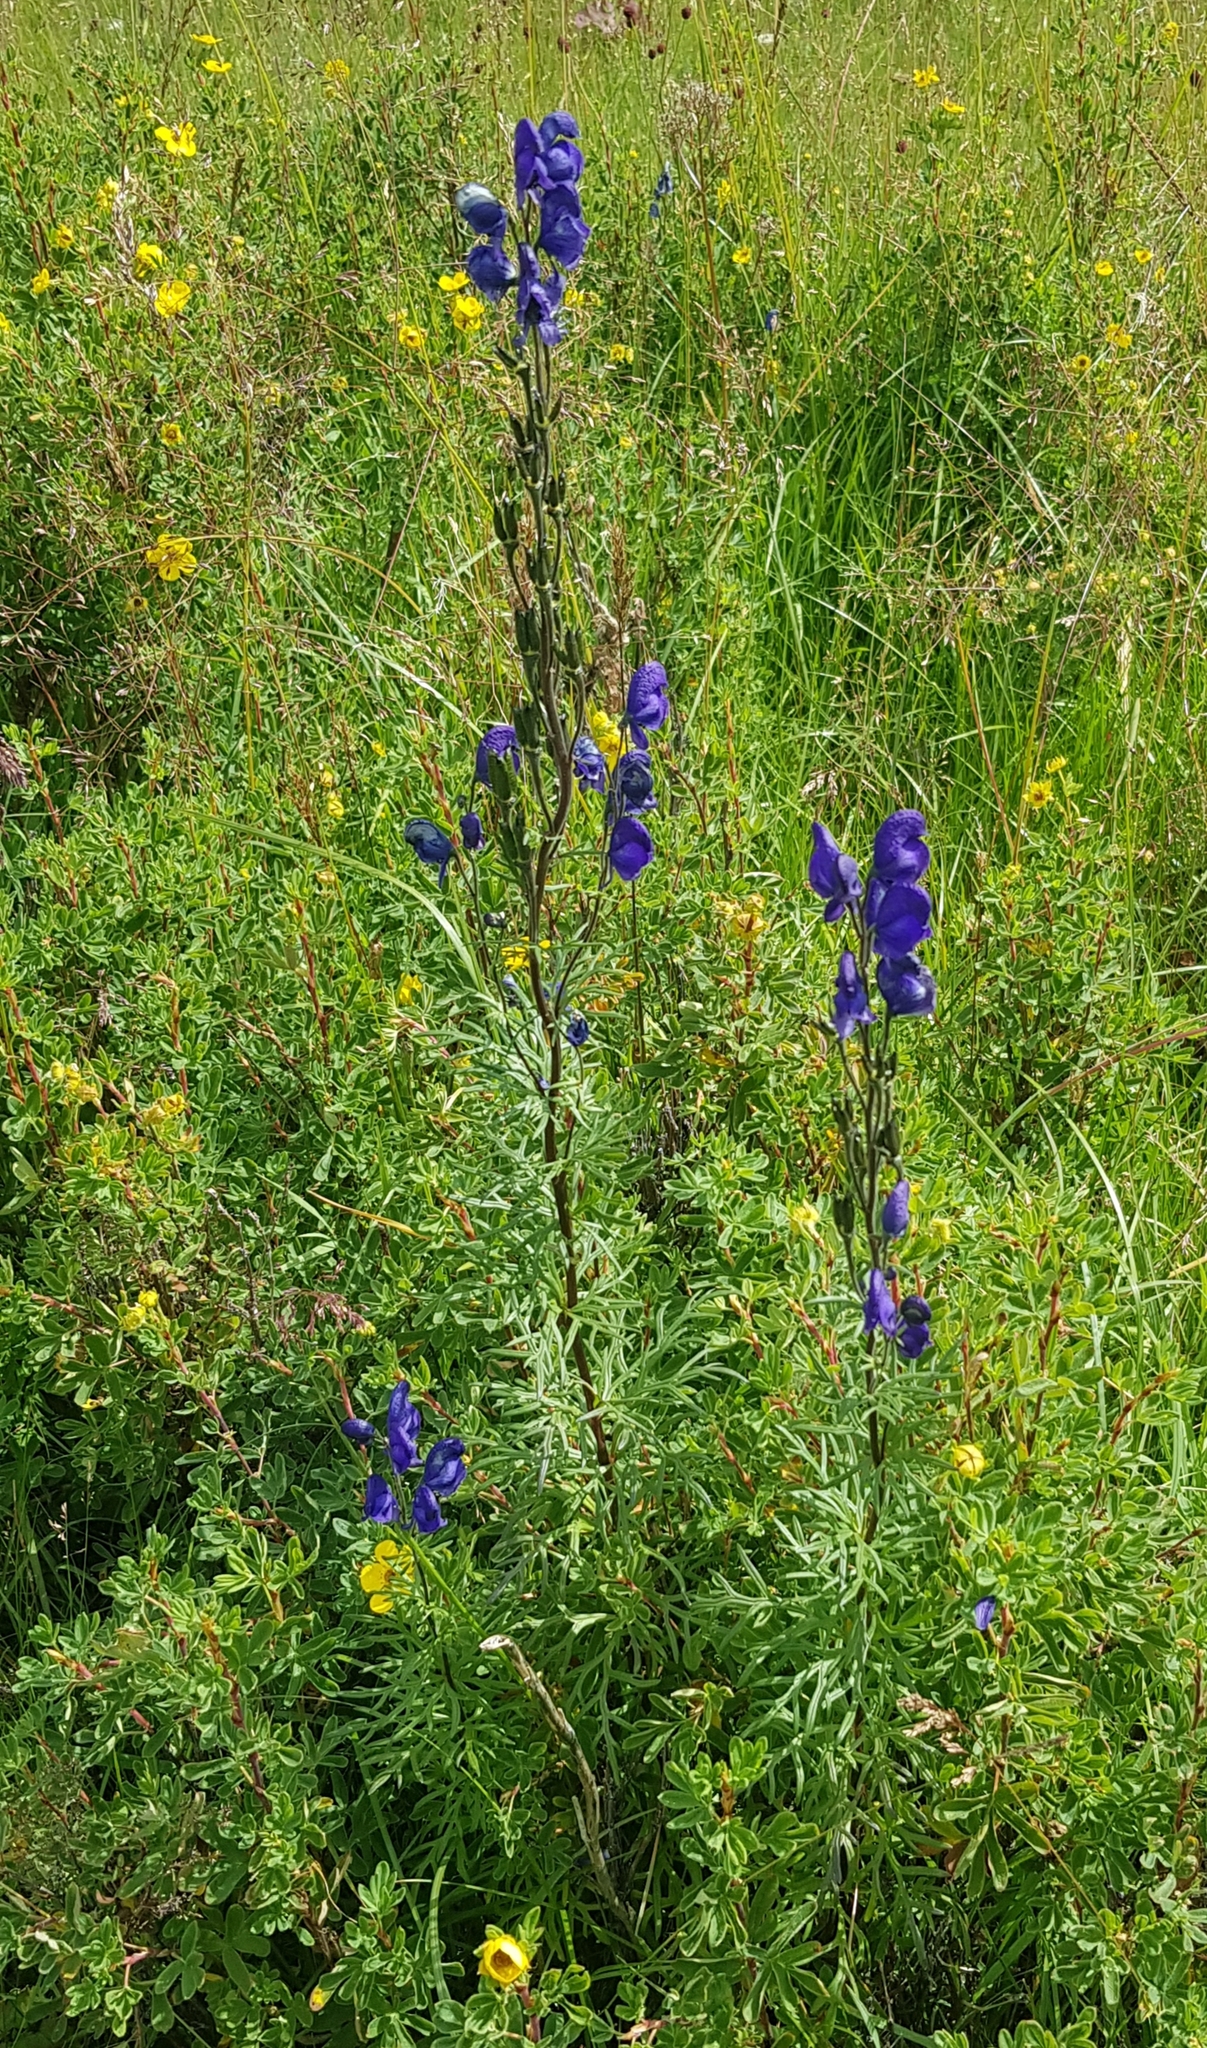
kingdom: Plantae
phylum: Tracheophyta
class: Magnoliopsida
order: Ranunculales
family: Ranunculaceae
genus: Aconitum
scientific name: Aconitum turczaninowii
